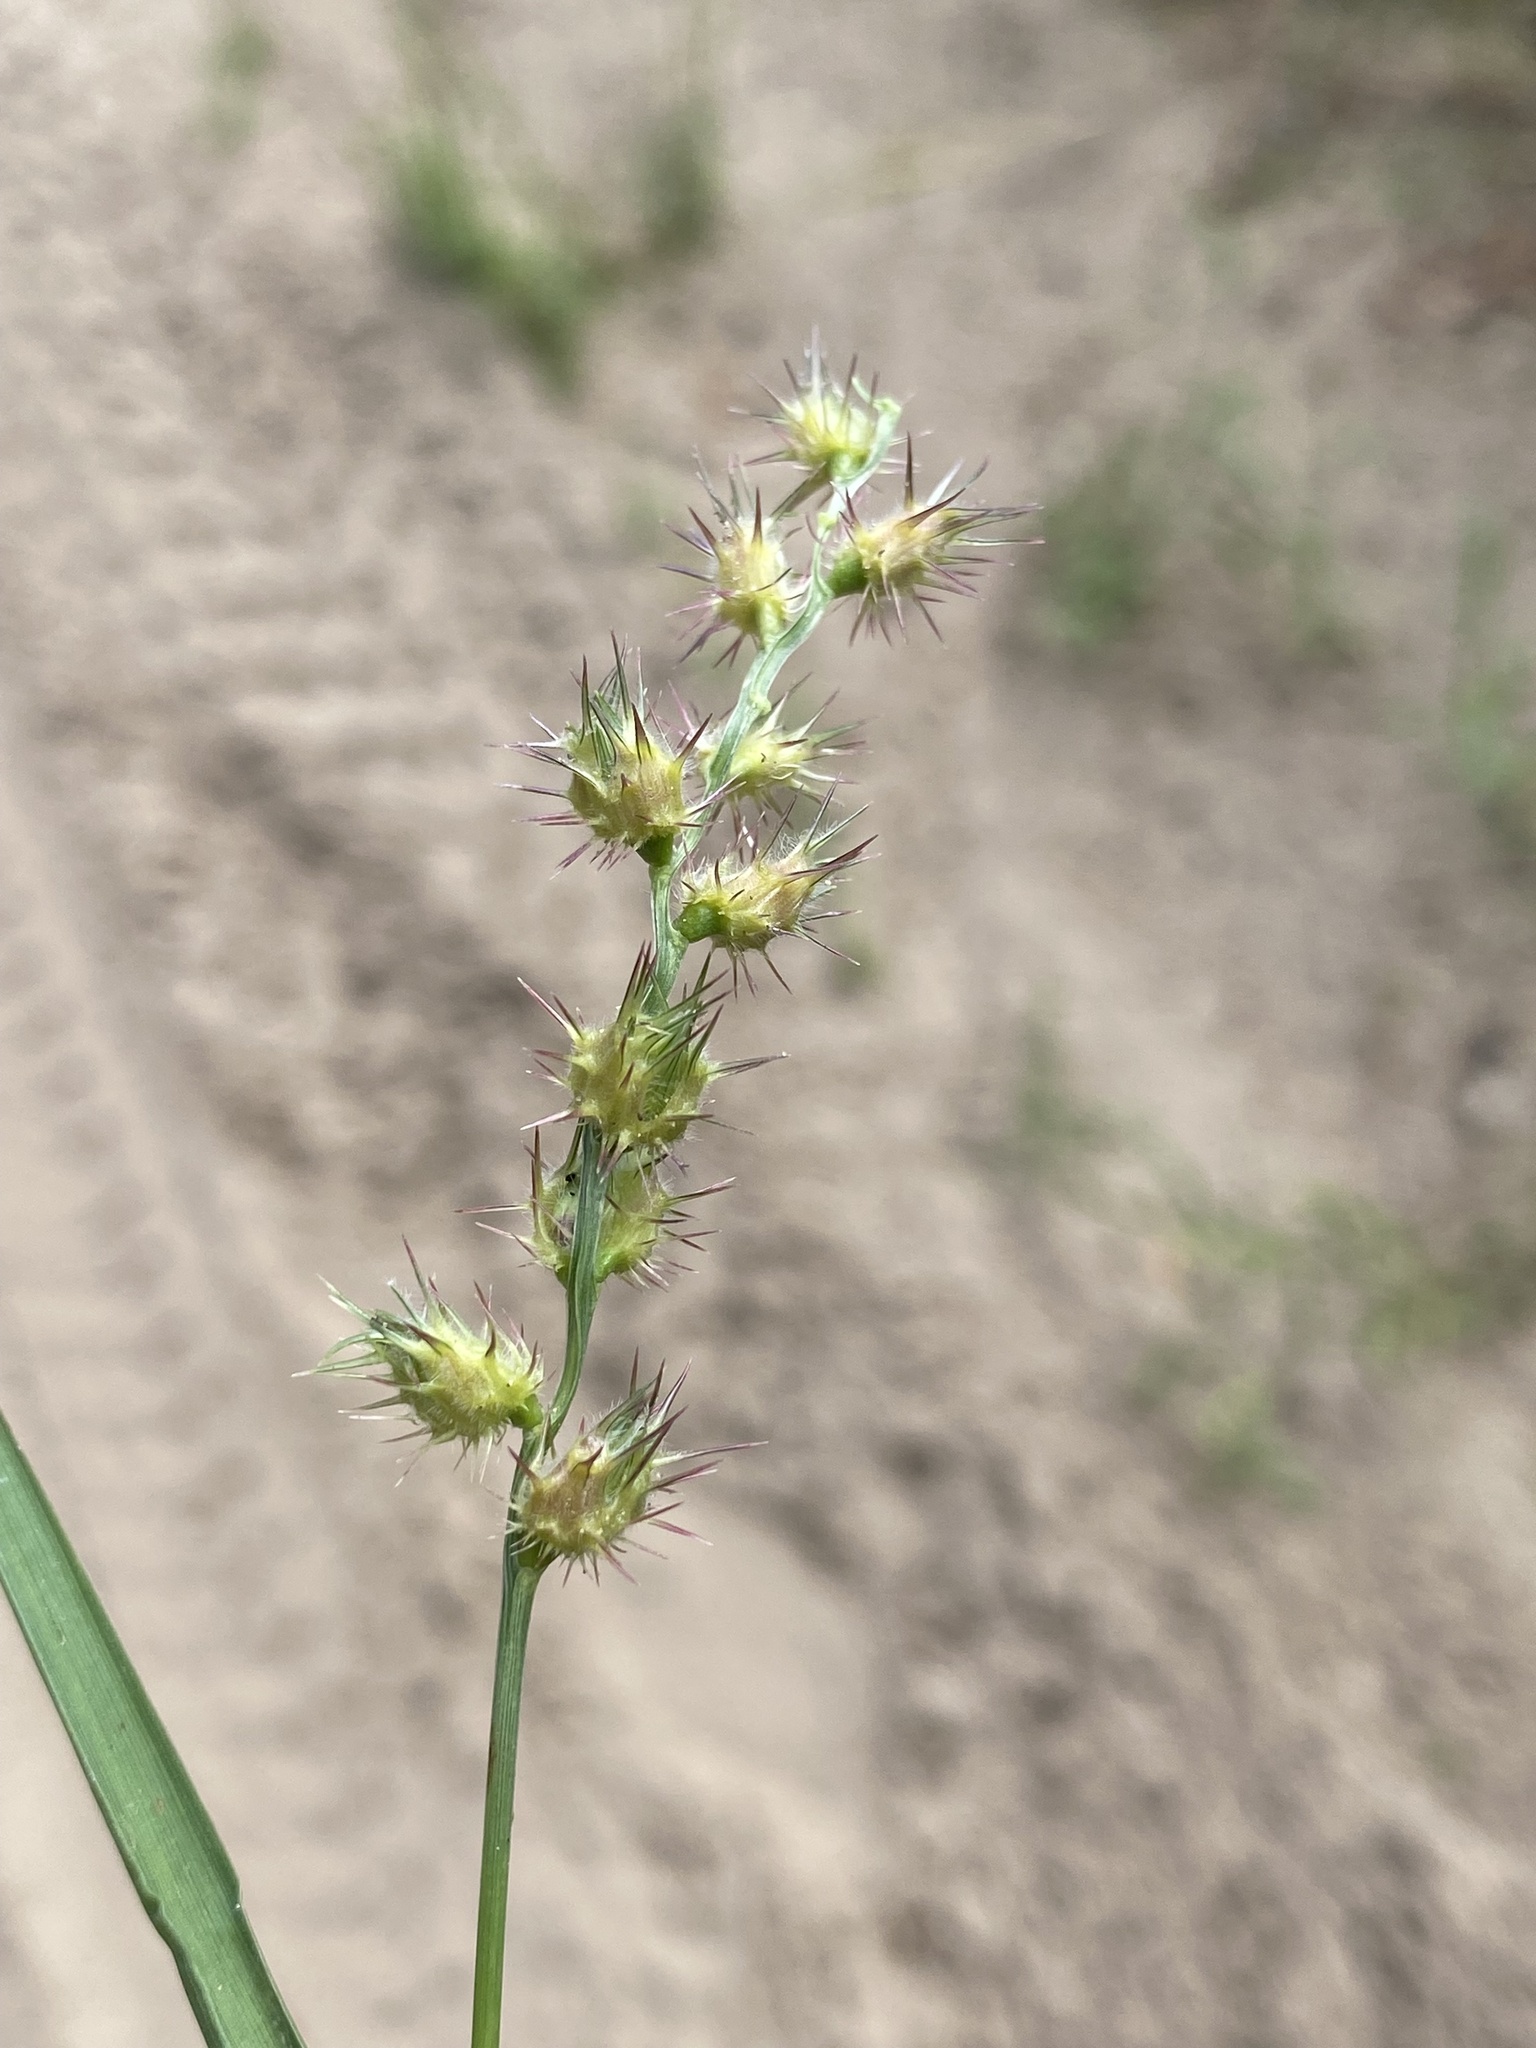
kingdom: Plantae
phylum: Tracheophyta
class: Liliopsida
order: Poales
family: Poaceae
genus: Cenchrus
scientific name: Cenchrus longispinus
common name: Mat sandbur
